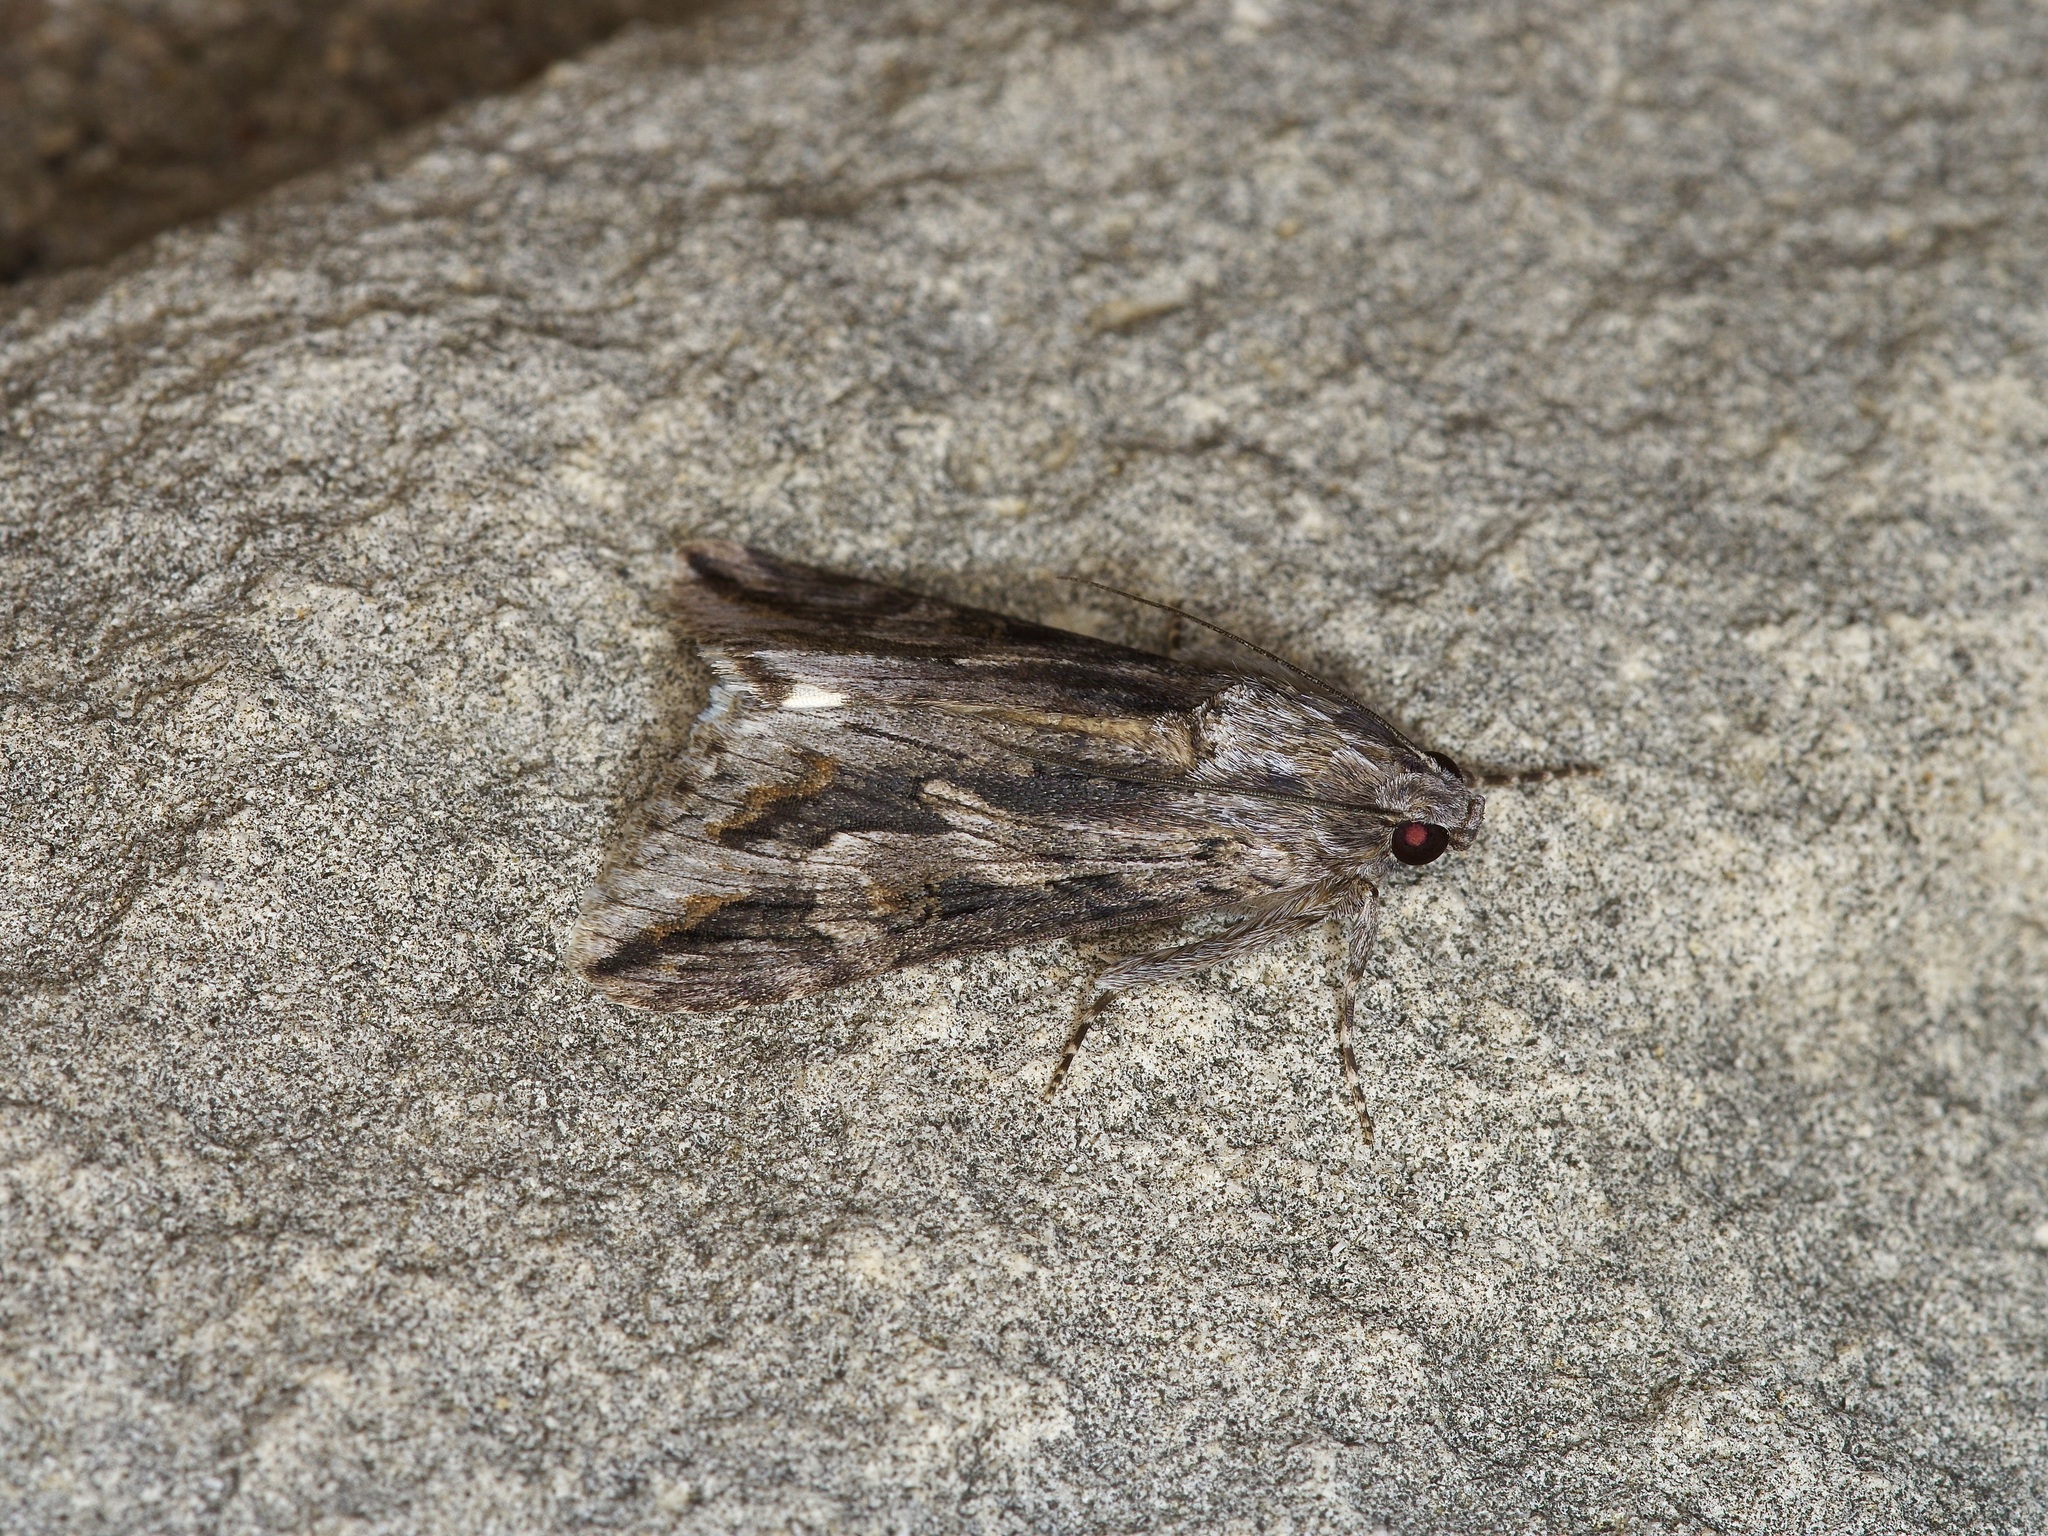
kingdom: Animalia
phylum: Arthropoda
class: Insecta
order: Lepidoptera
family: Erebidae
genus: Melipotis
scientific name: Melipotis jucunda
